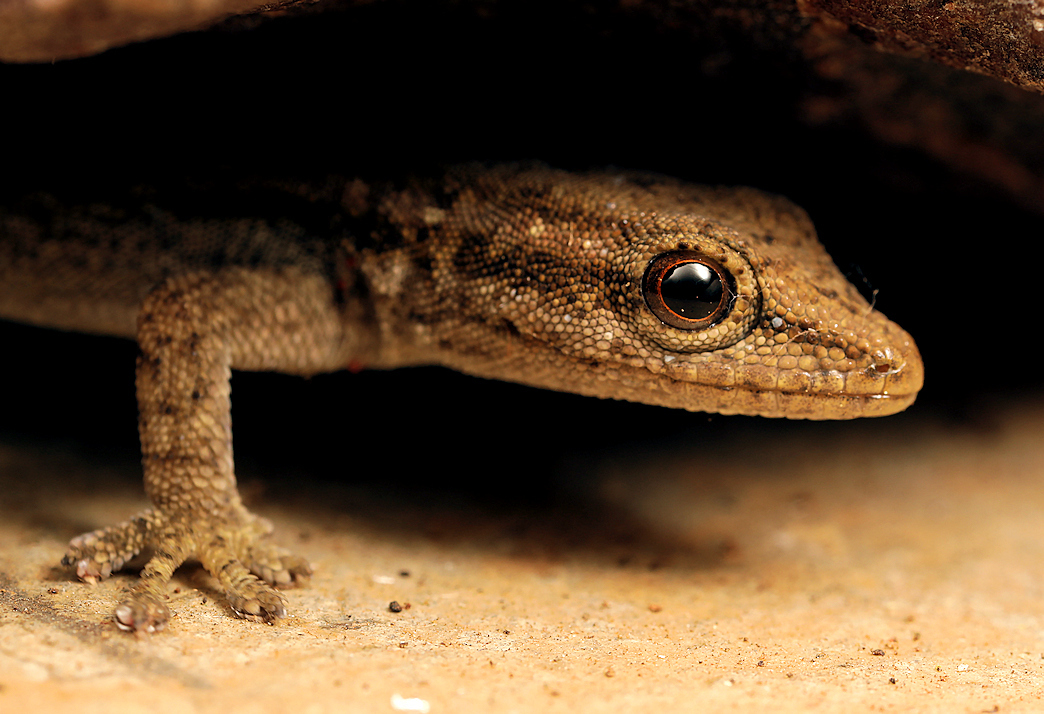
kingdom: Animalia
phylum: Chordata
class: Squamata
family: Gekkonidae
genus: Lygodactylus
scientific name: Lygodactylus capensis
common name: Cape dwarf gecko
